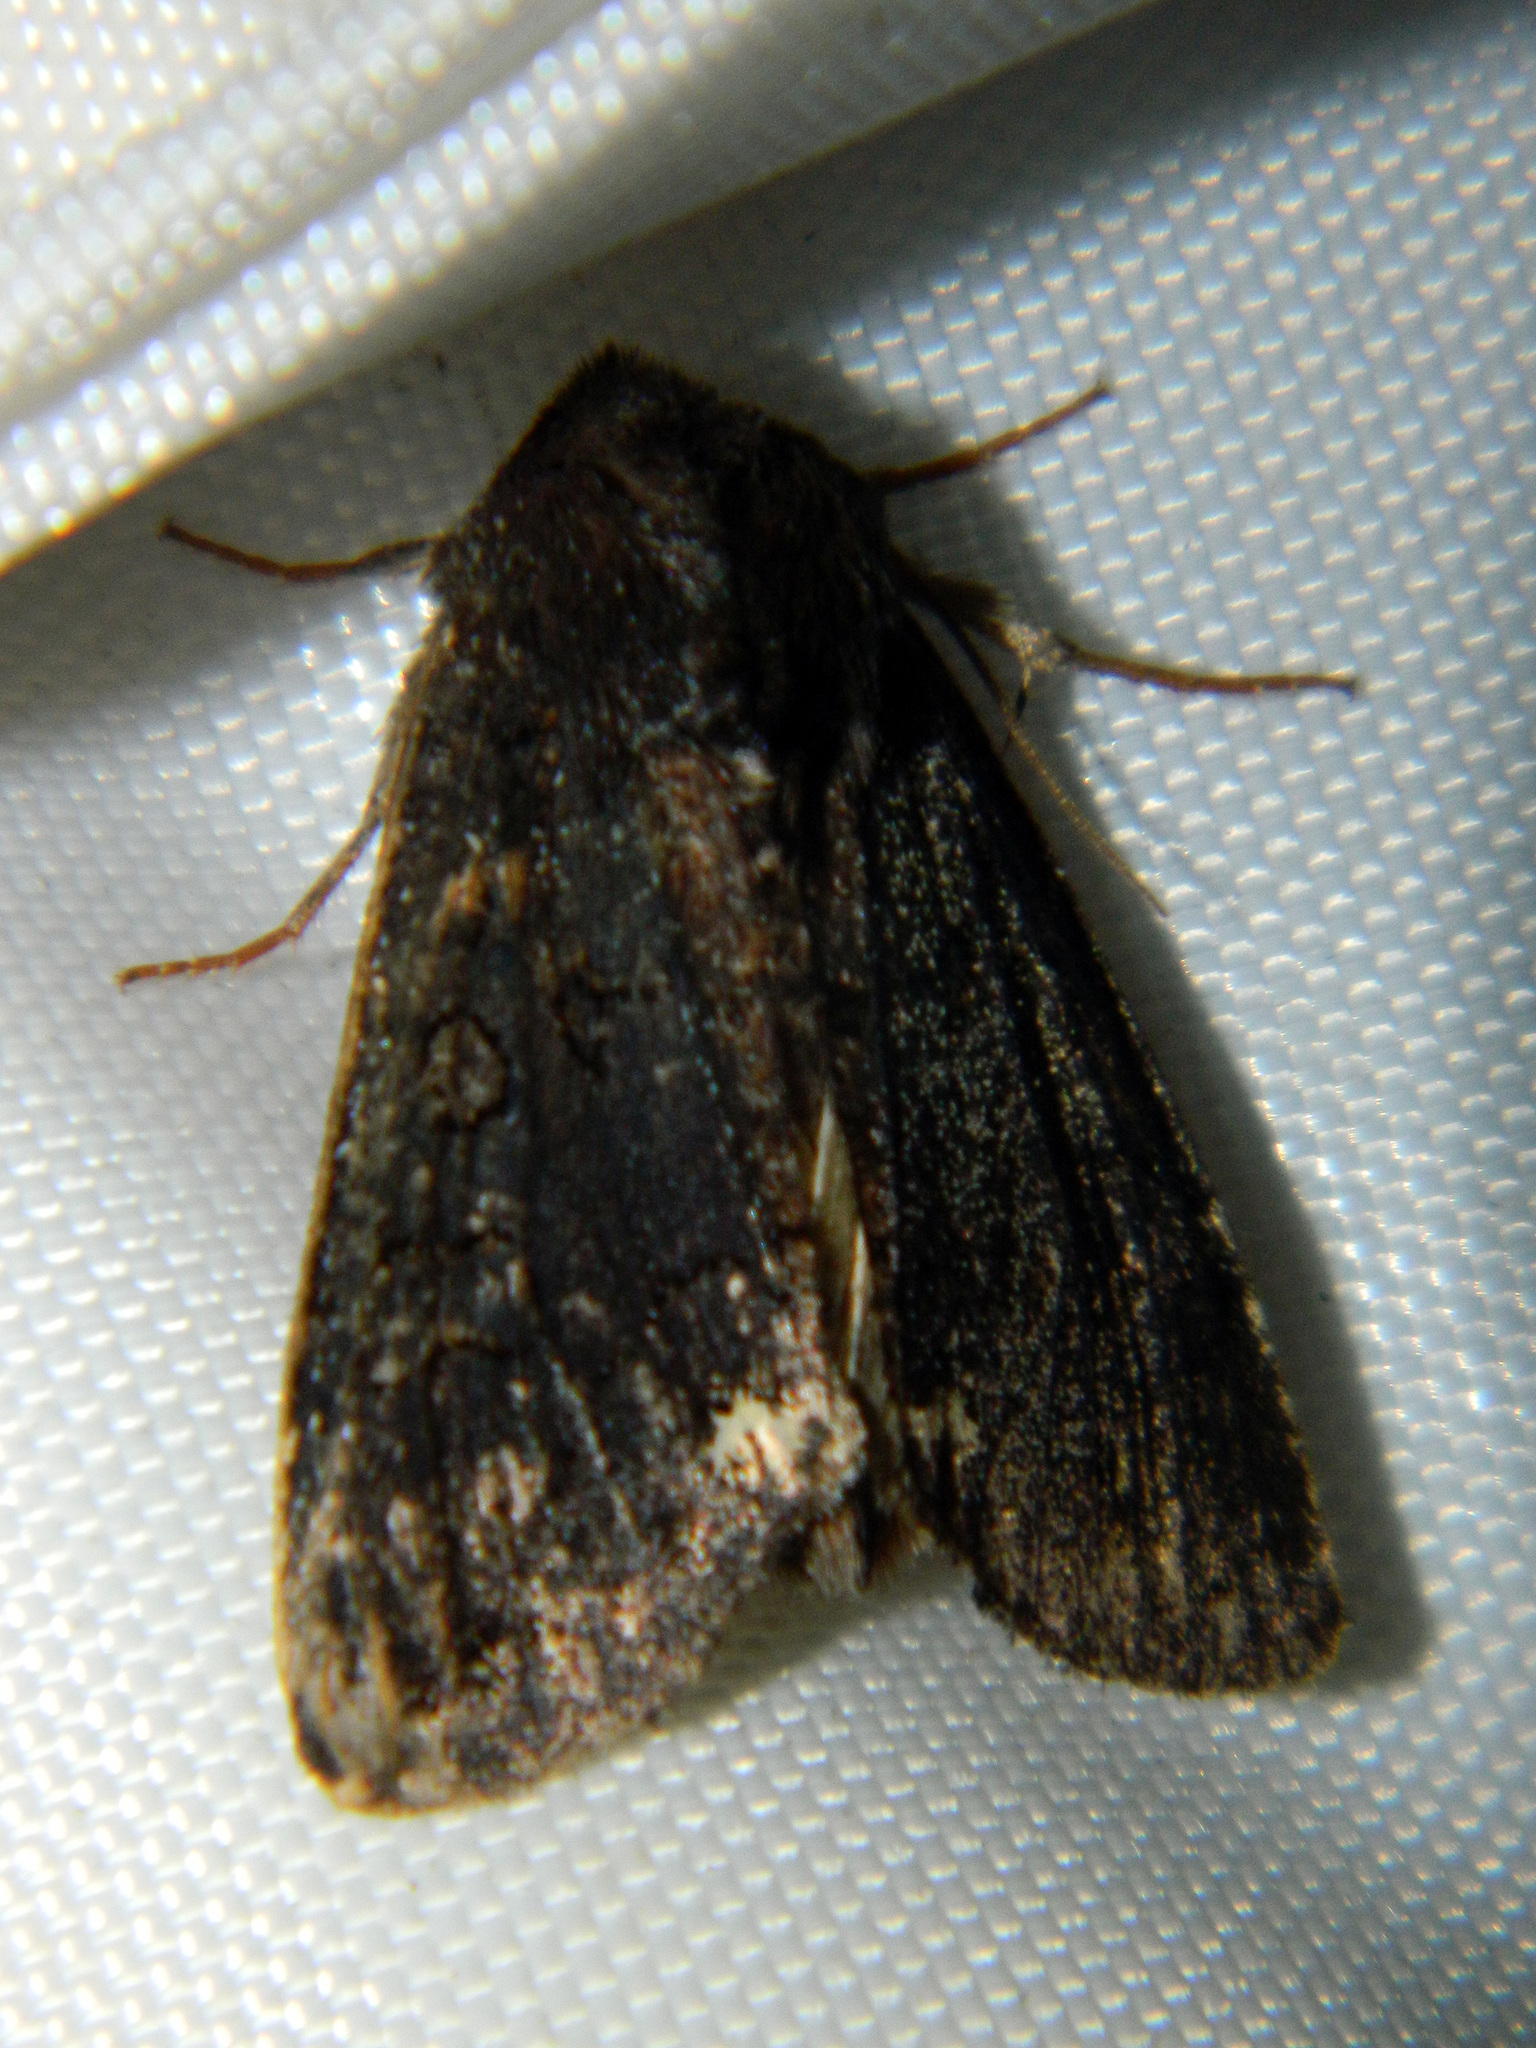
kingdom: Animalia
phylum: Arthropoda
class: Insecta
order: Lepidoptera
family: Noctuidae
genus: Melanchra
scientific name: Melanchra assimilis
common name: Black arches
